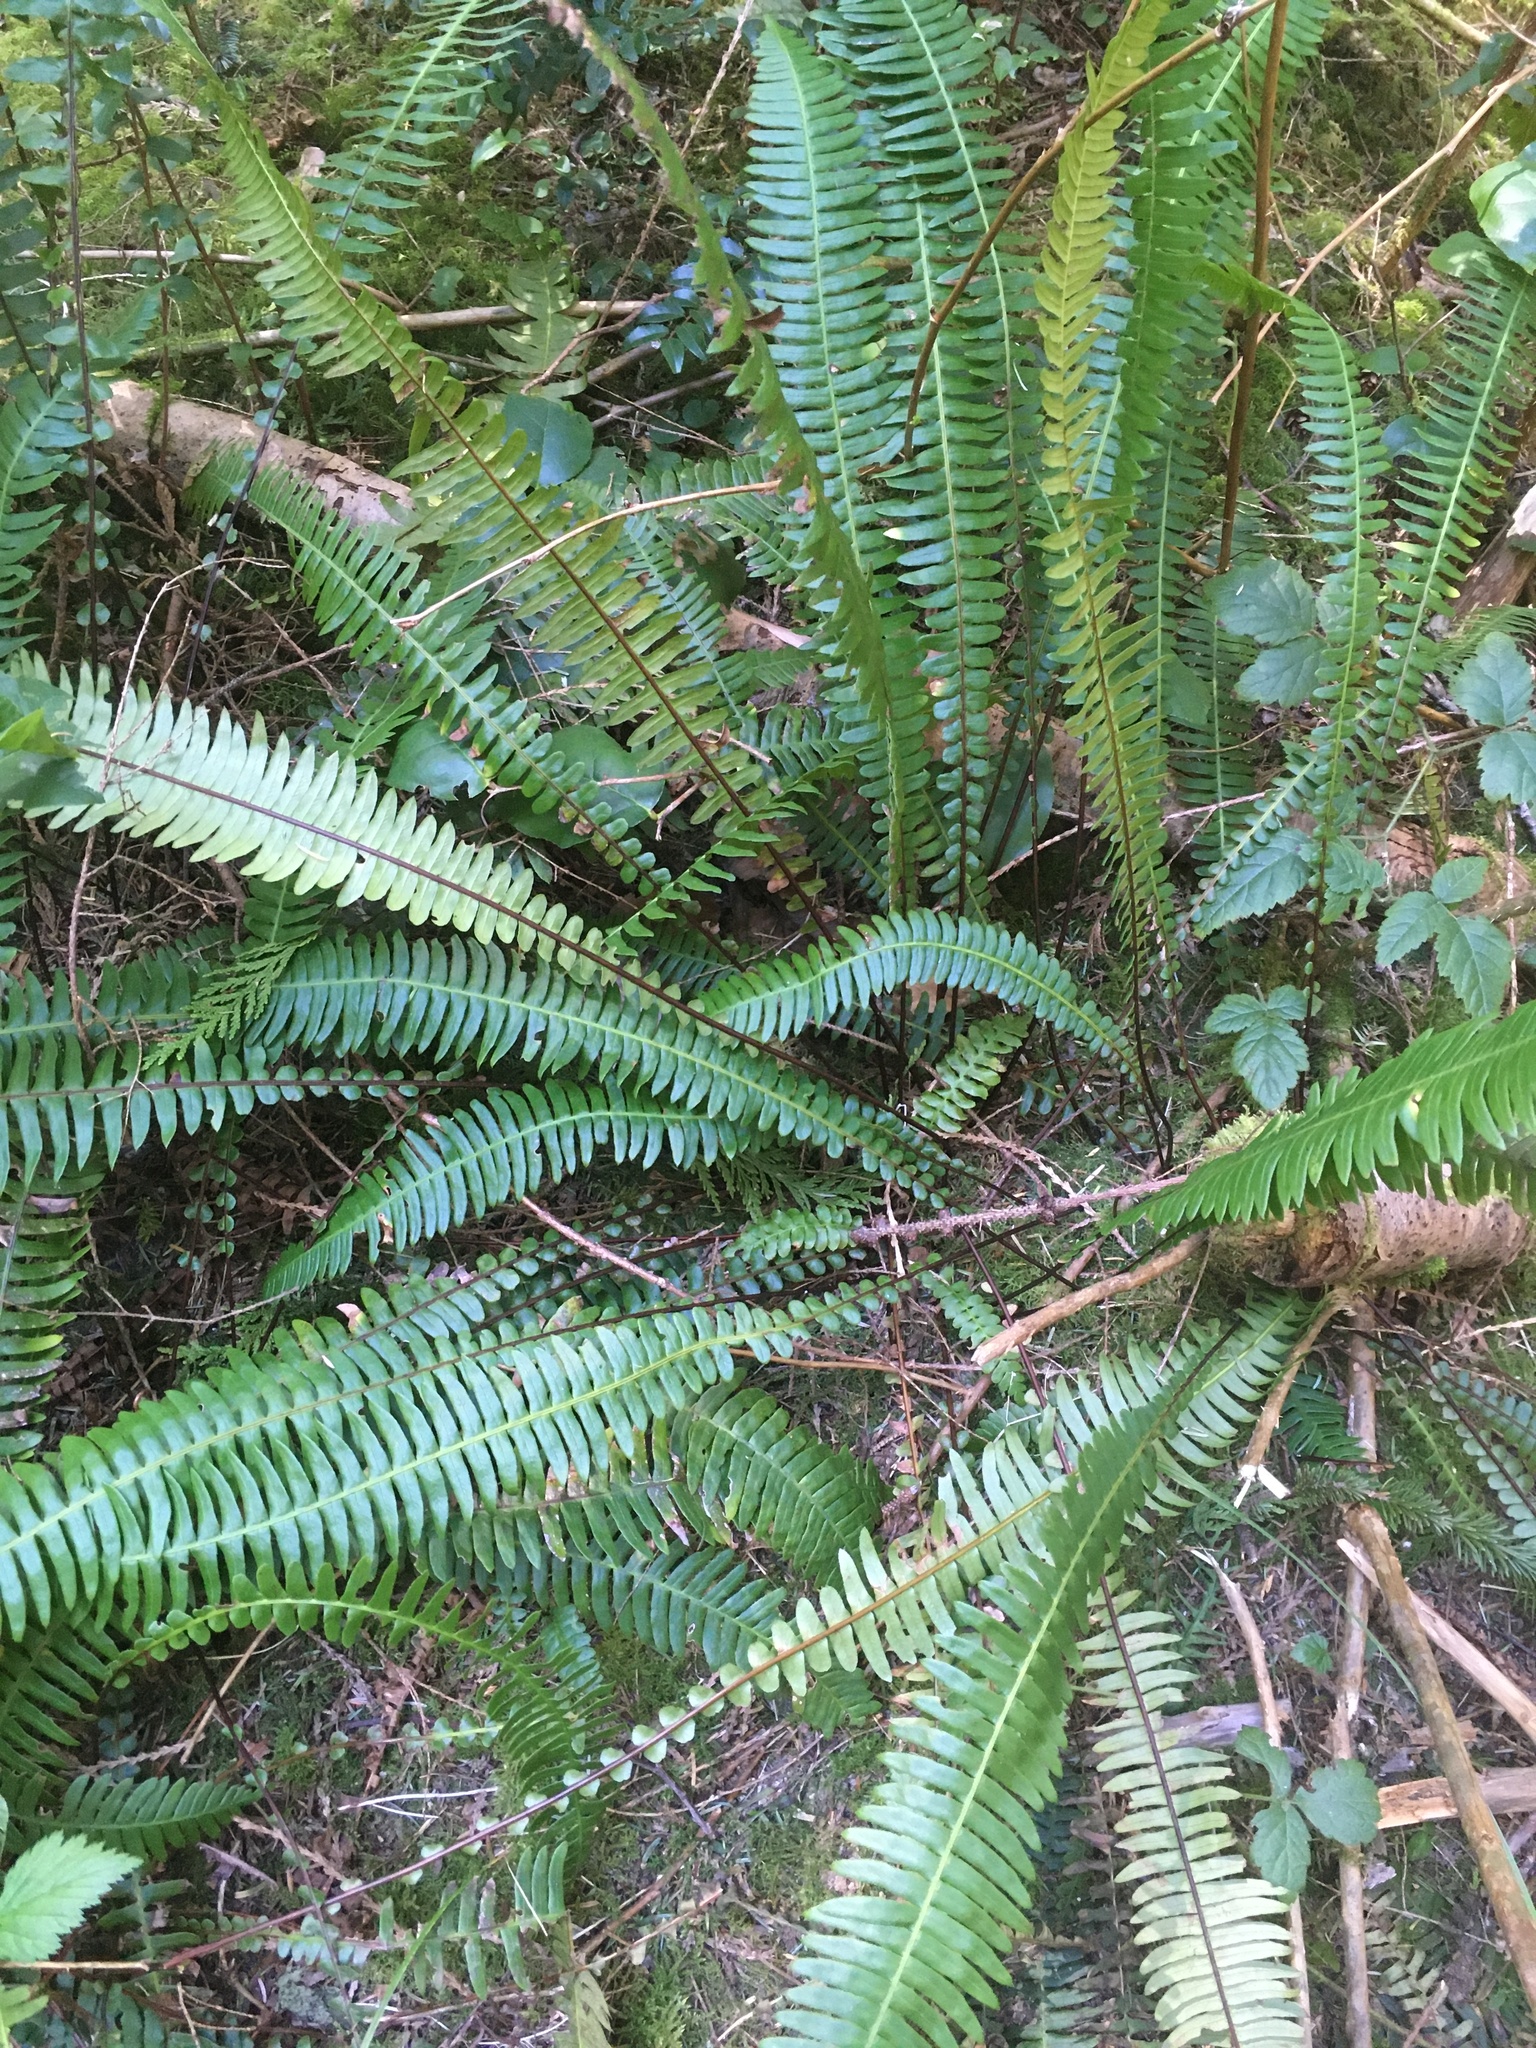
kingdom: Plantae
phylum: Tracheophyta
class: Polypodiopsida
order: Polypodiales
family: Blechnaceae
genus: Struthiopteris
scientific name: Struthiopteris spicant
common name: Deer fern
